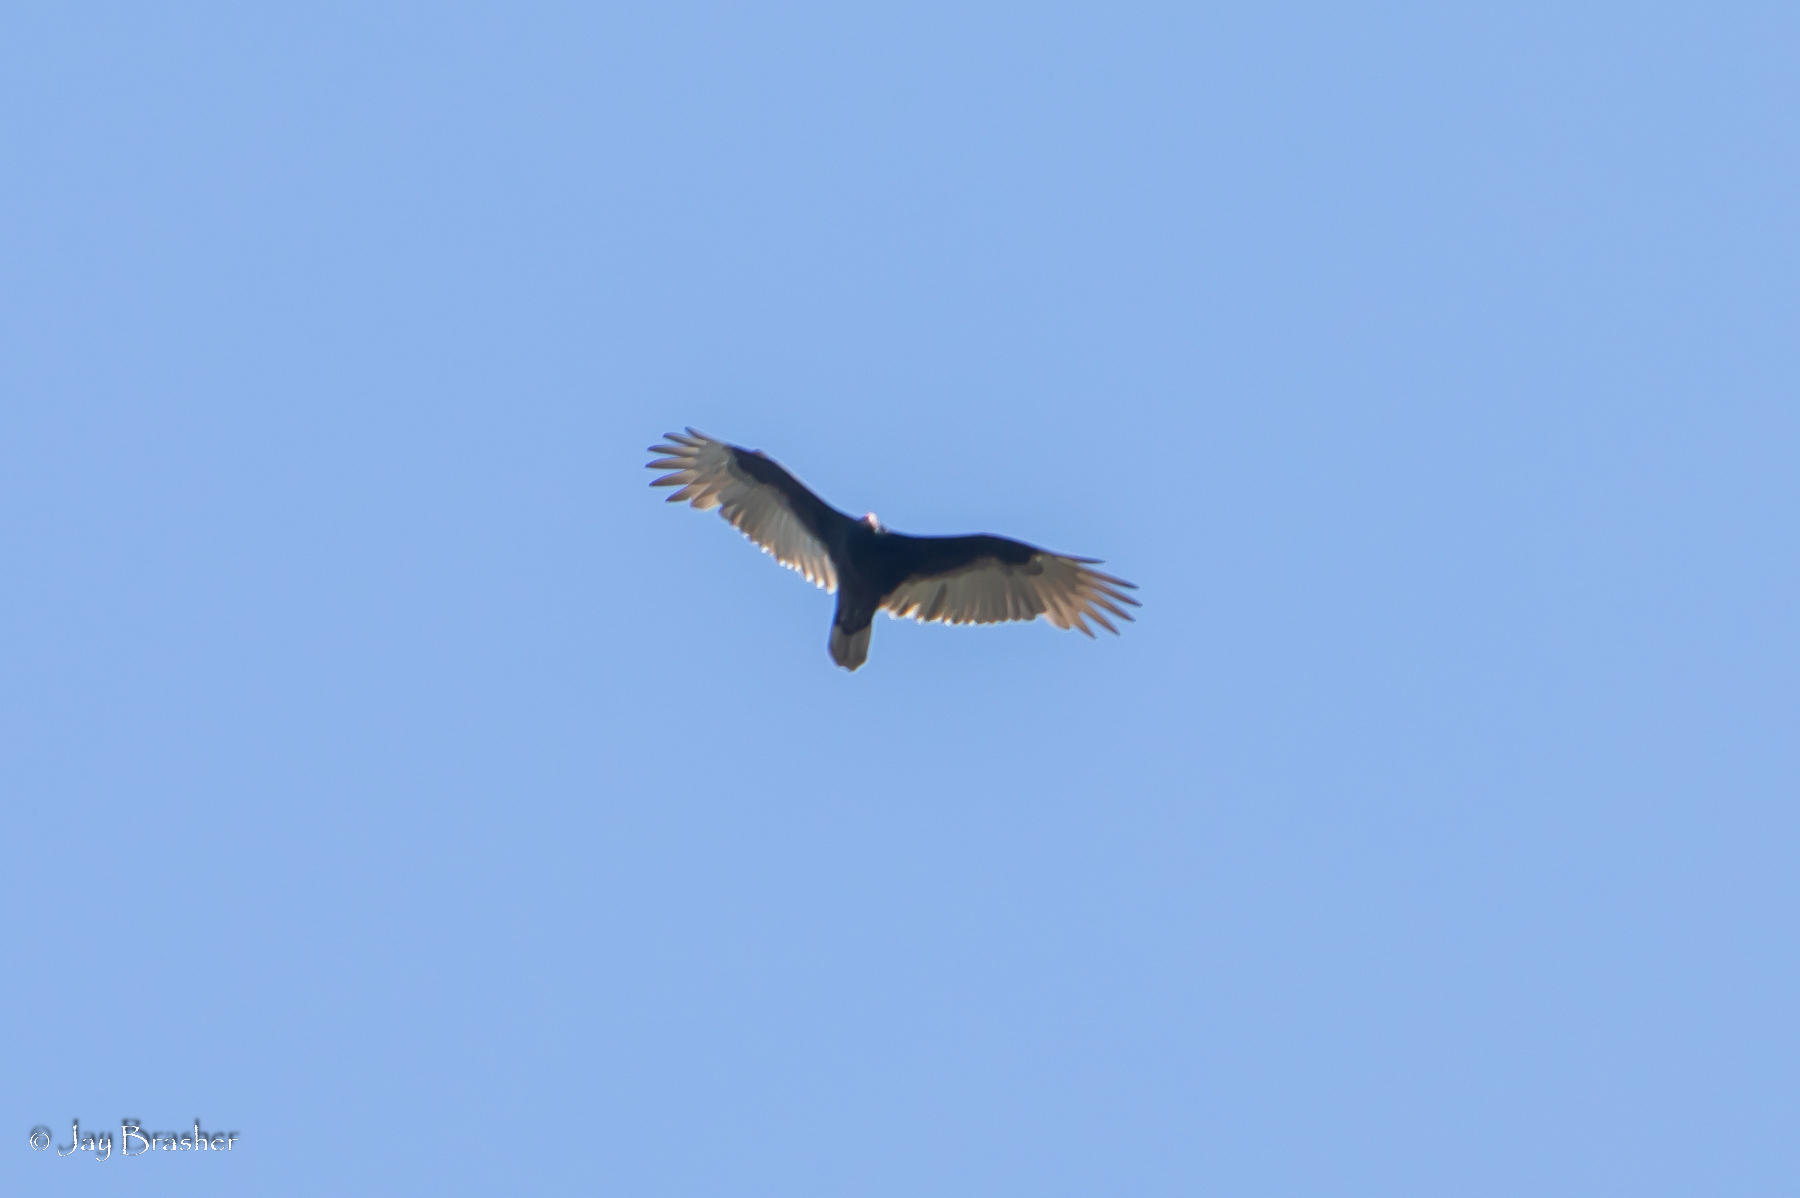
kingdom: Animalia
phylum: Chordata
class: Aves
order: Accipitriformes
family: Cathartidae
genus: Cathartes
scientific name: Cathartes aura
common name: Turkey vulture
